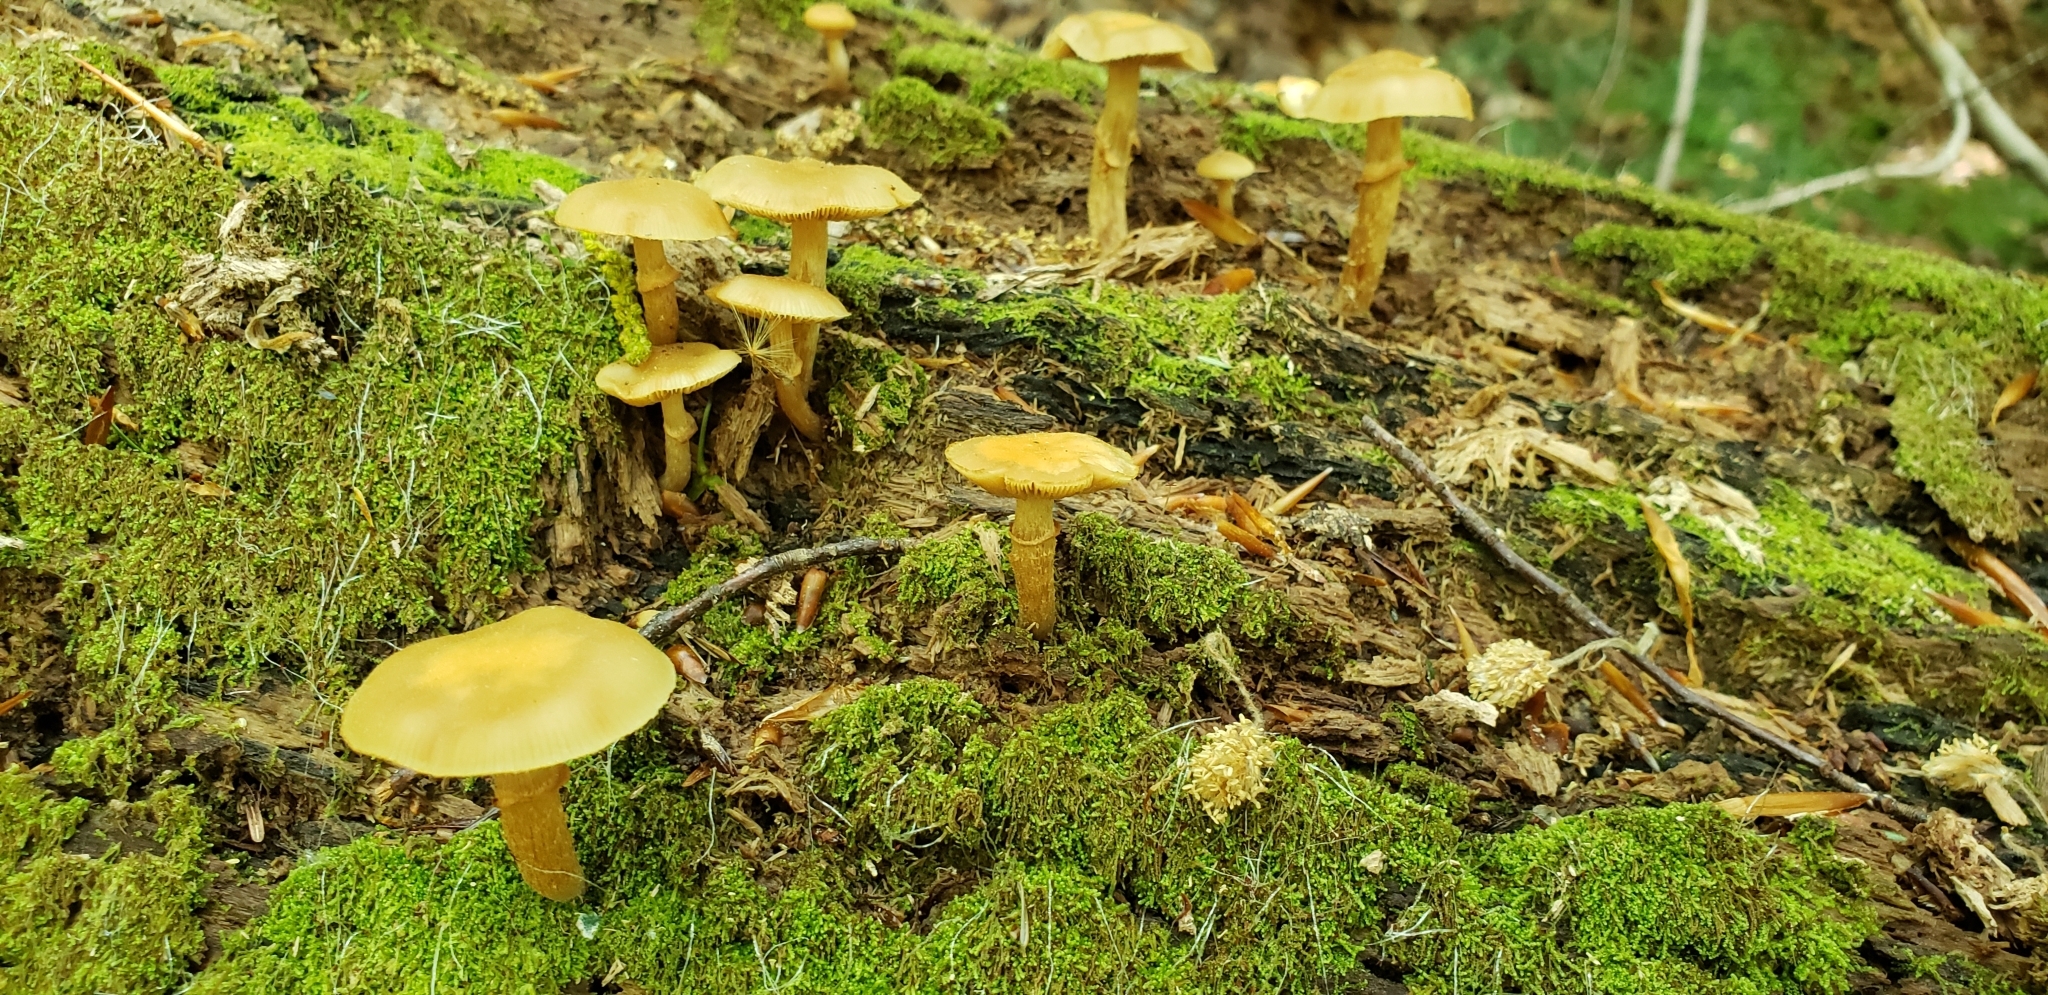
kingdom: Fungi
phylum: Basidiomycota
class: Agaricomycetes
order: Agaricales
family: Strophariaceae
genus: Kuehneromyces
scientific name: Kuehneromyces marginellus
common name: Sheathed woodtuft
